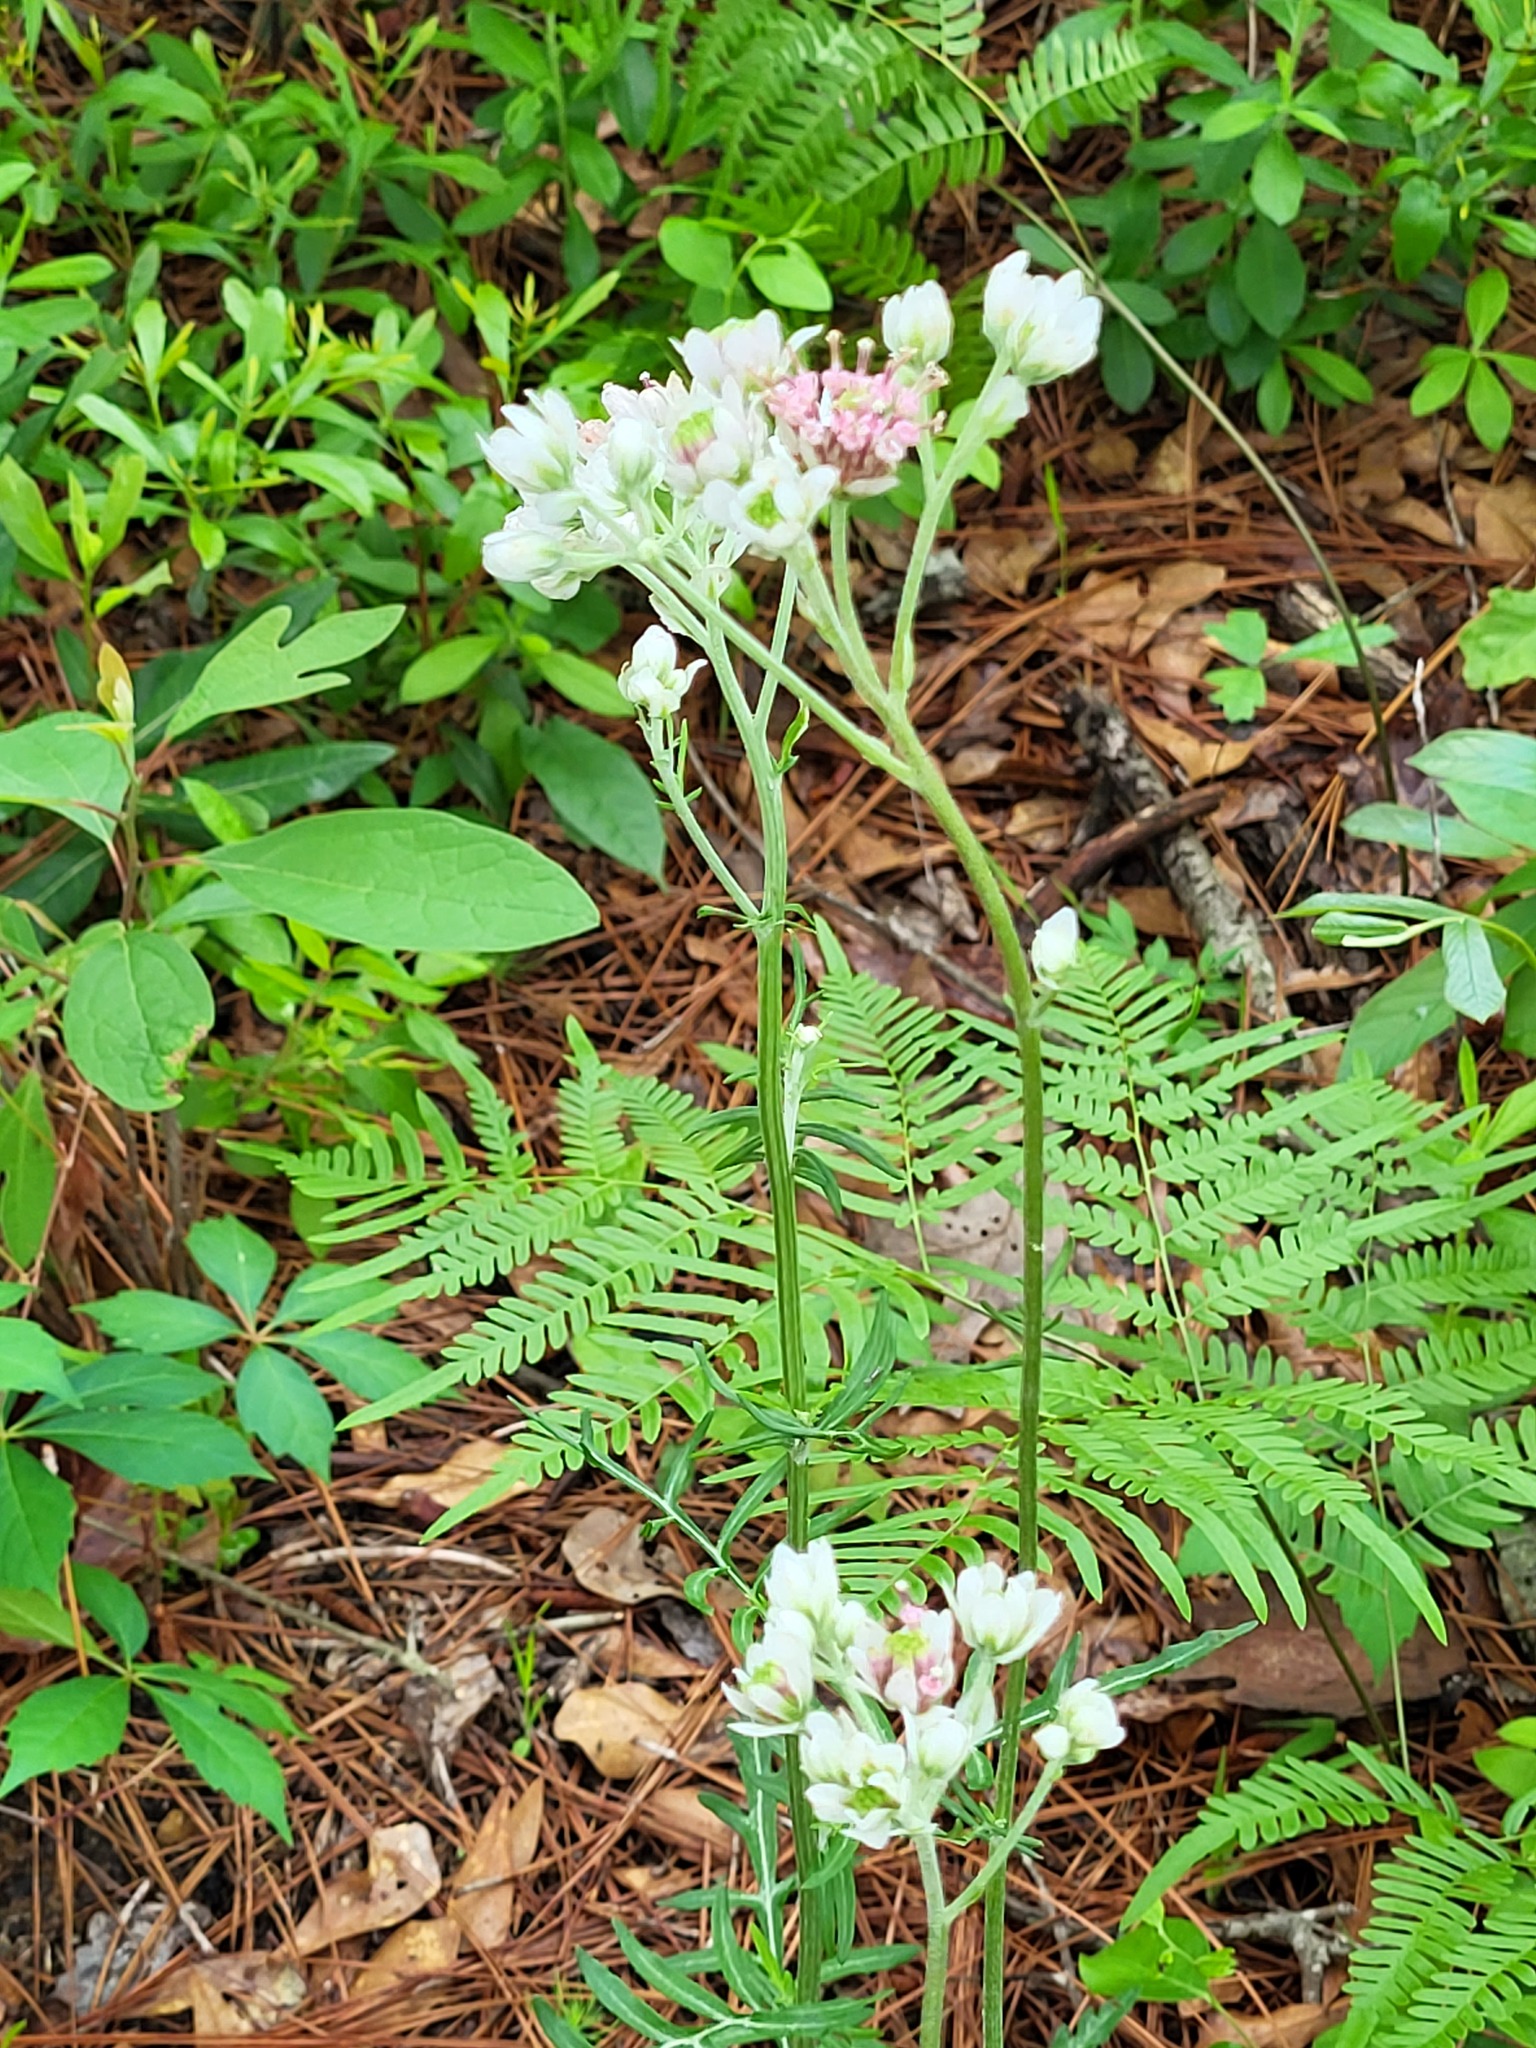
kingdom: Plantae
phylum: Tracheophyta
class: Magnoliopsida
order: Asterales
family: Asteraceae
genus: Hymenopappus
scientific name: Hymenopappus artemisiifolius
